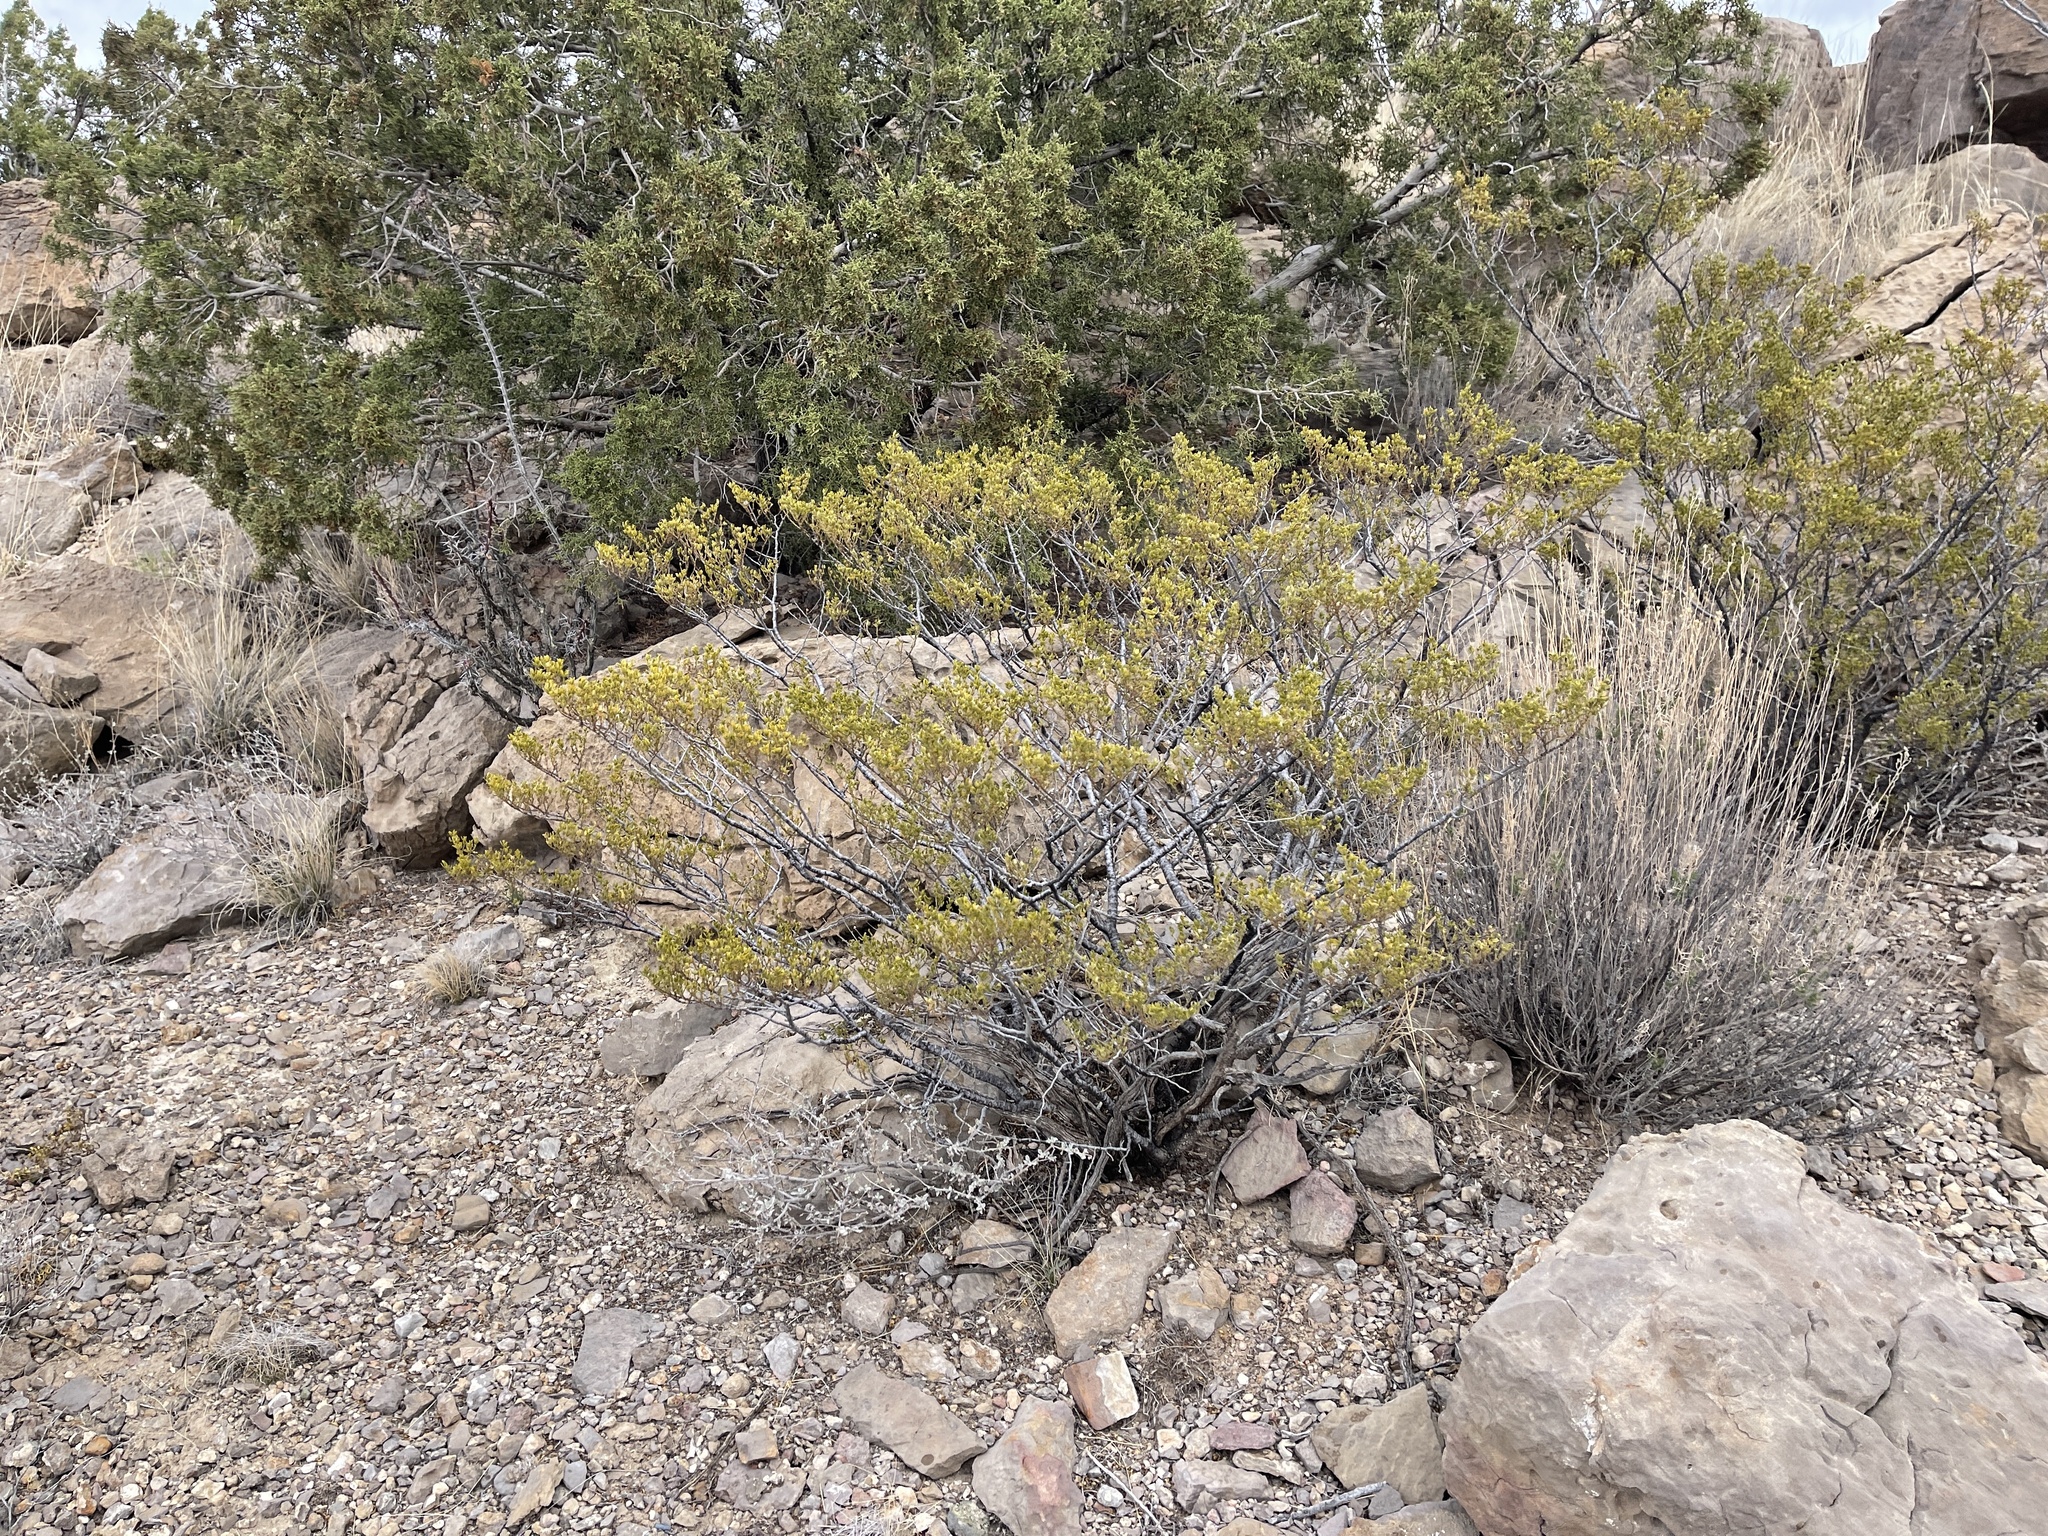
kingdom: Plantae
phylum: Tracheophyta
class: Magnoliopsida
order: Zygophyllales
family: Zygophyllaceae
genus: Larrea
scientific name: Larrea tridentata
